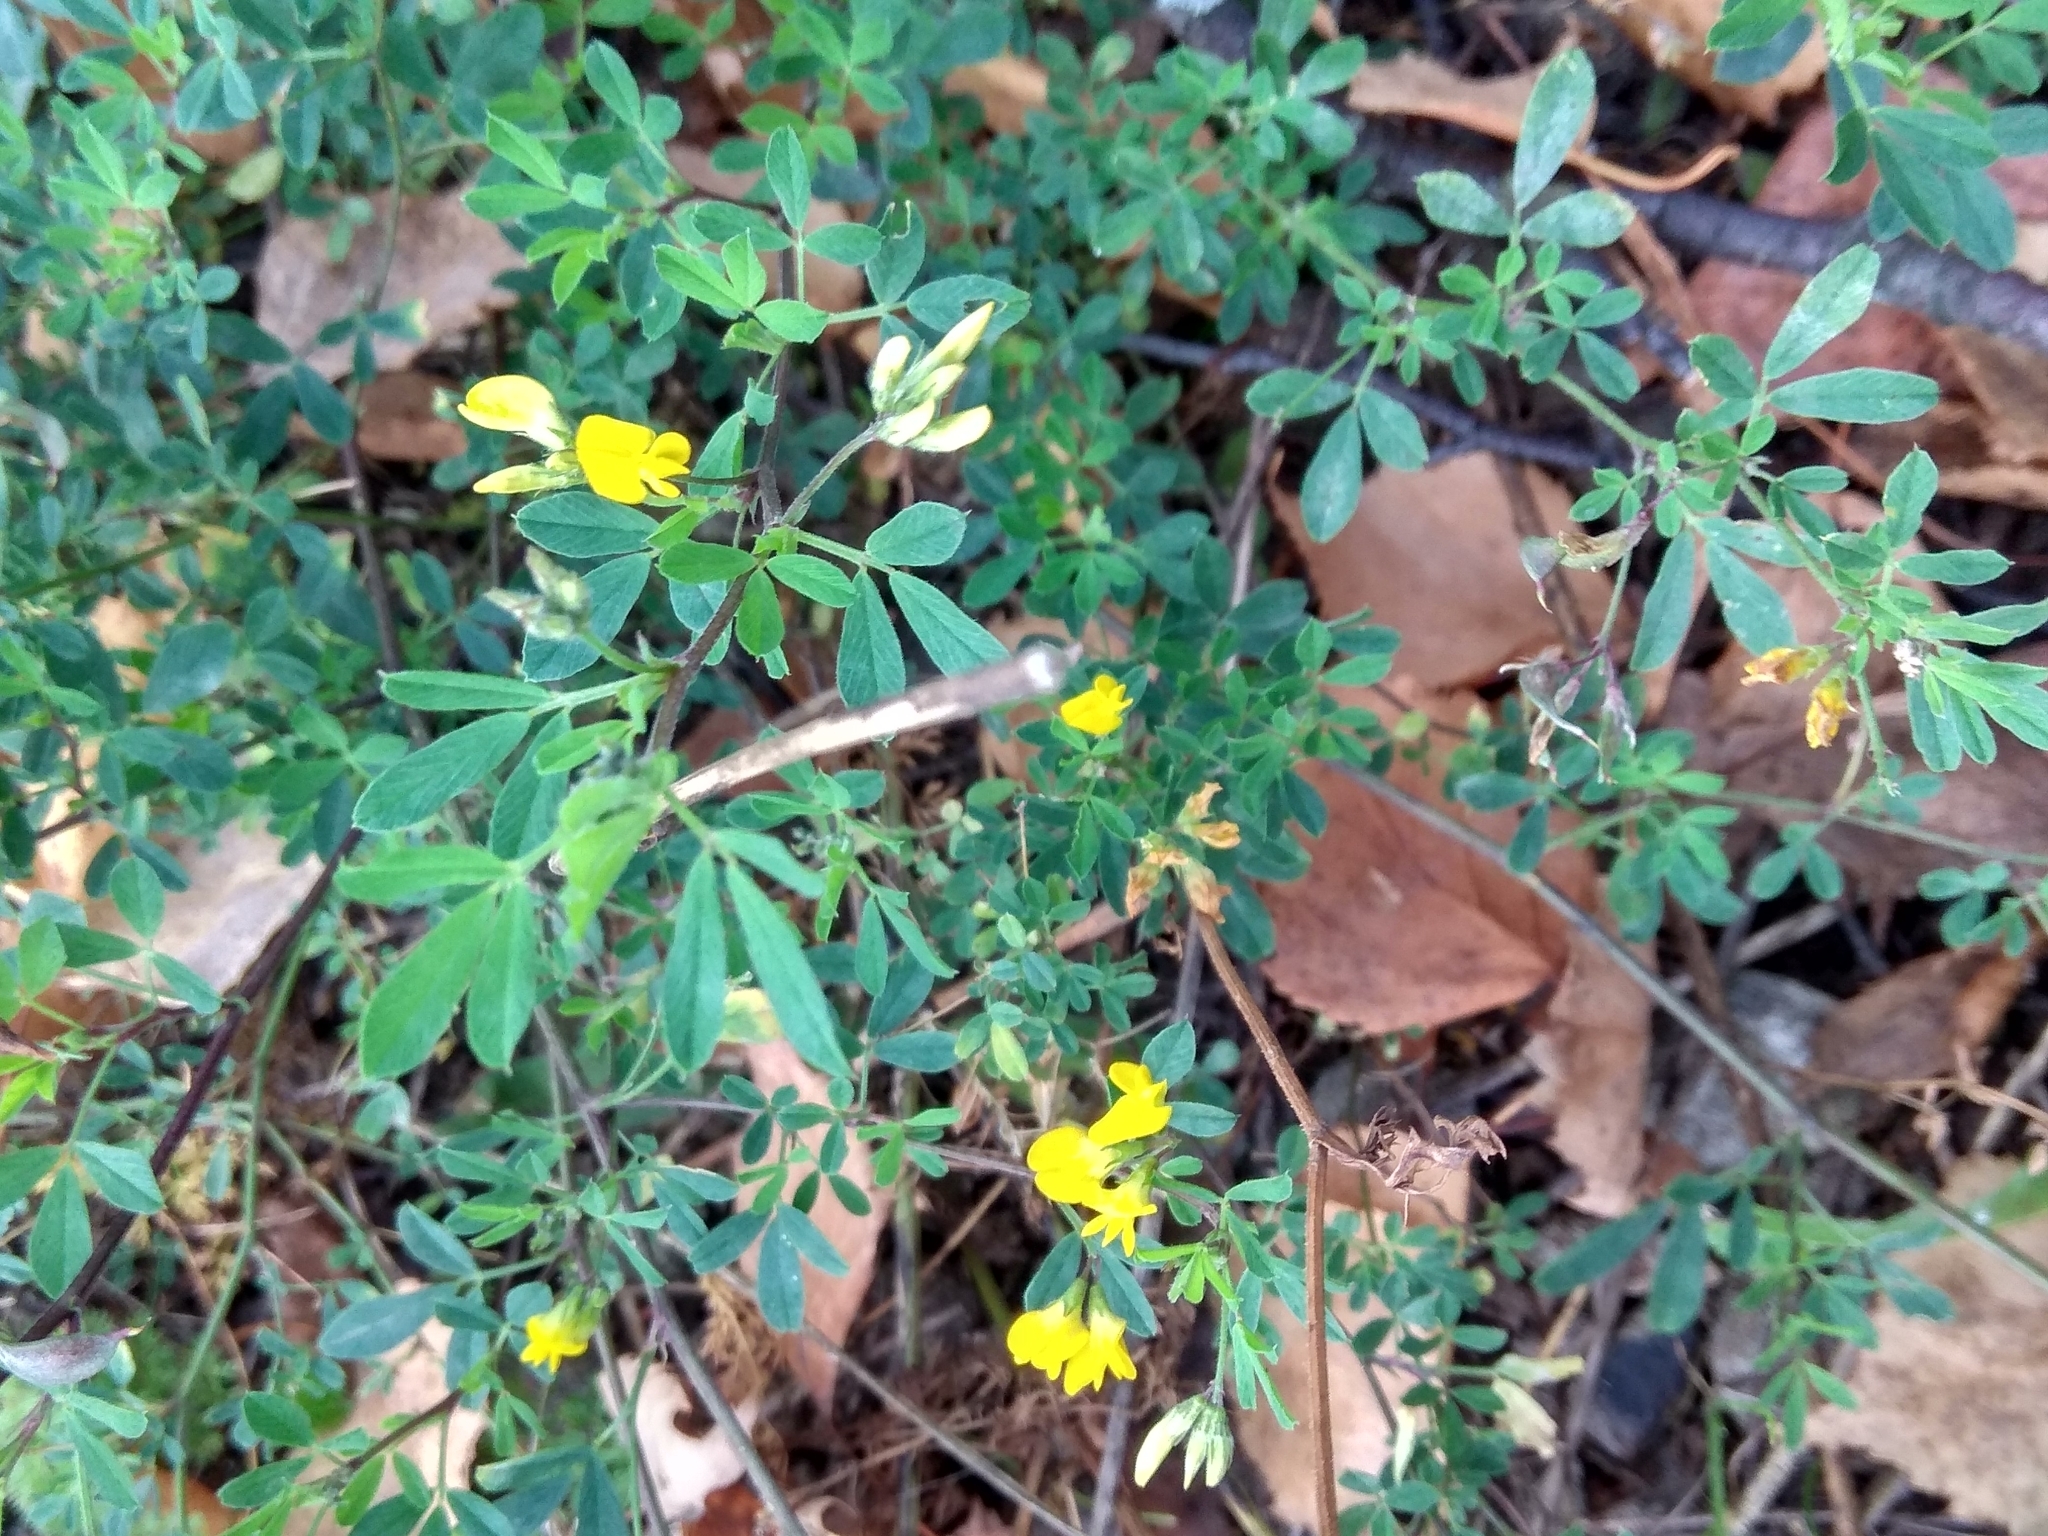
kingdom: Plantae
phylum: Tracheophyta
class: Magnoliopsida
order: Fabales
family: Fabaceae
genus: Medicago
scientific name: Medicago falcata
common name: Sickle medick
